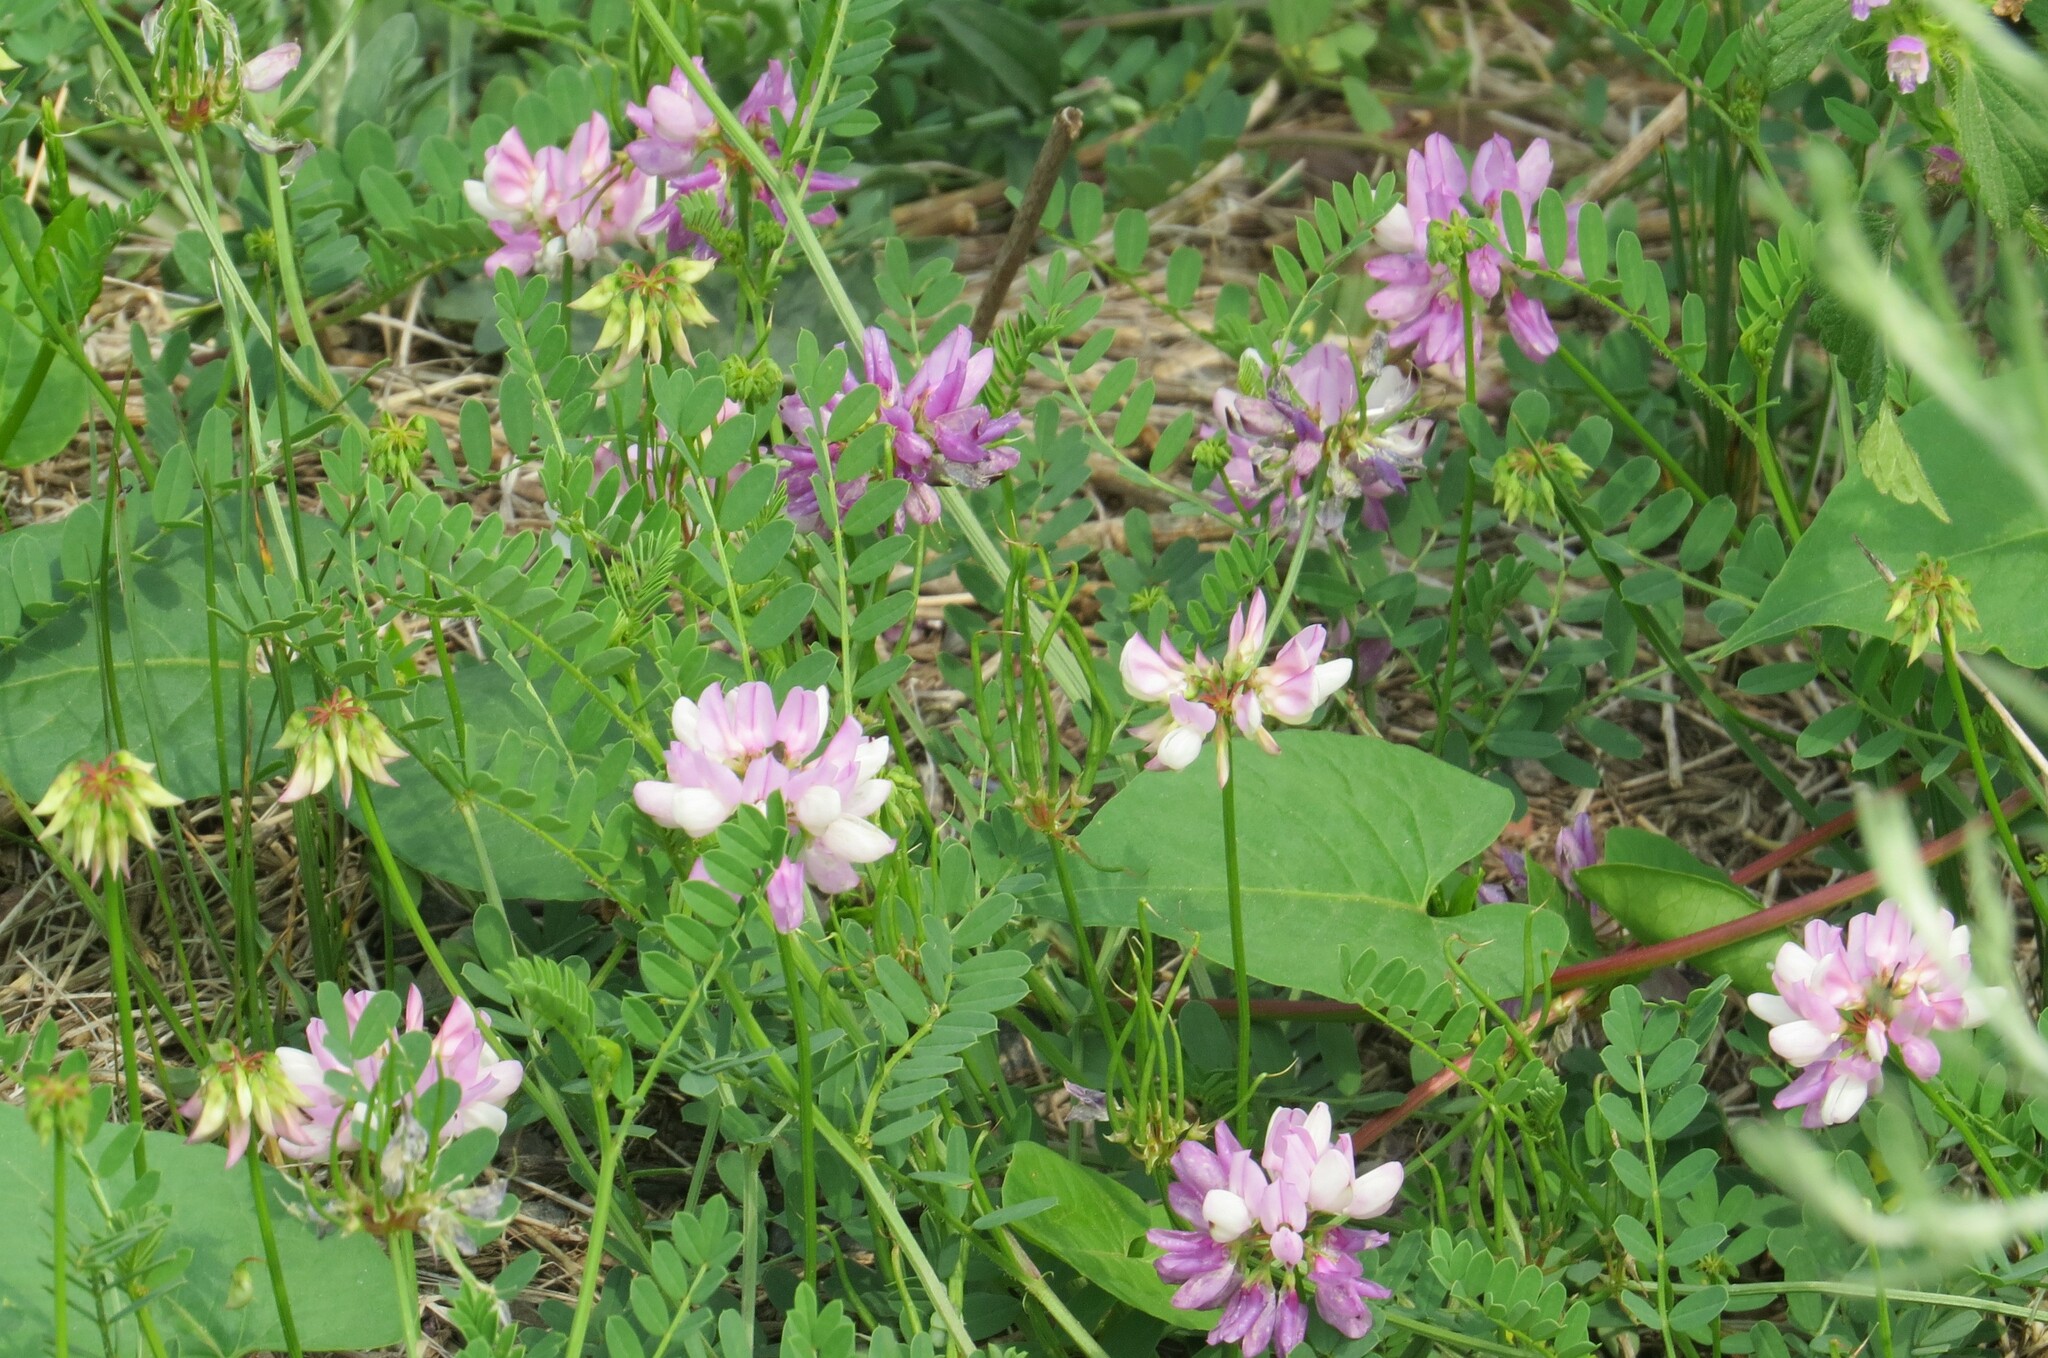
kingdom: Plantae
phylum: Tracheophyta
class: Magnoliopsida
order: Fabales
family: Fabaceae
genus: Coronilla
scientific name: Coronilla varia
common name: Crownvetch
